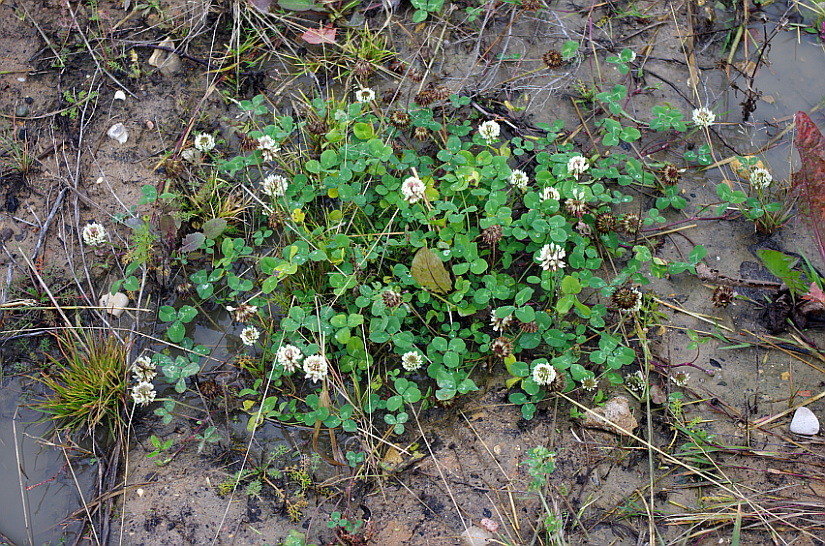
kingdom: Plantae
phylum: Tracheophyta
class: Magnoliopsida
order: Fabales
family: Fabaceae
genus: Trifolium
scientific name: Trifolium repens
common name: White clover
